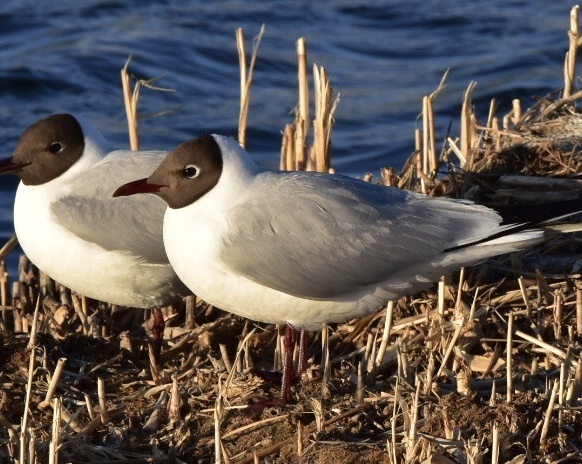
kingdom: Animalia
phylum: Chordata
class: Aves
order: Charadriiformes
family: Laridae
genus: Chroicocephalus
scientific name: Chroicocephalus ridibundus
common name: Black-headed gull
